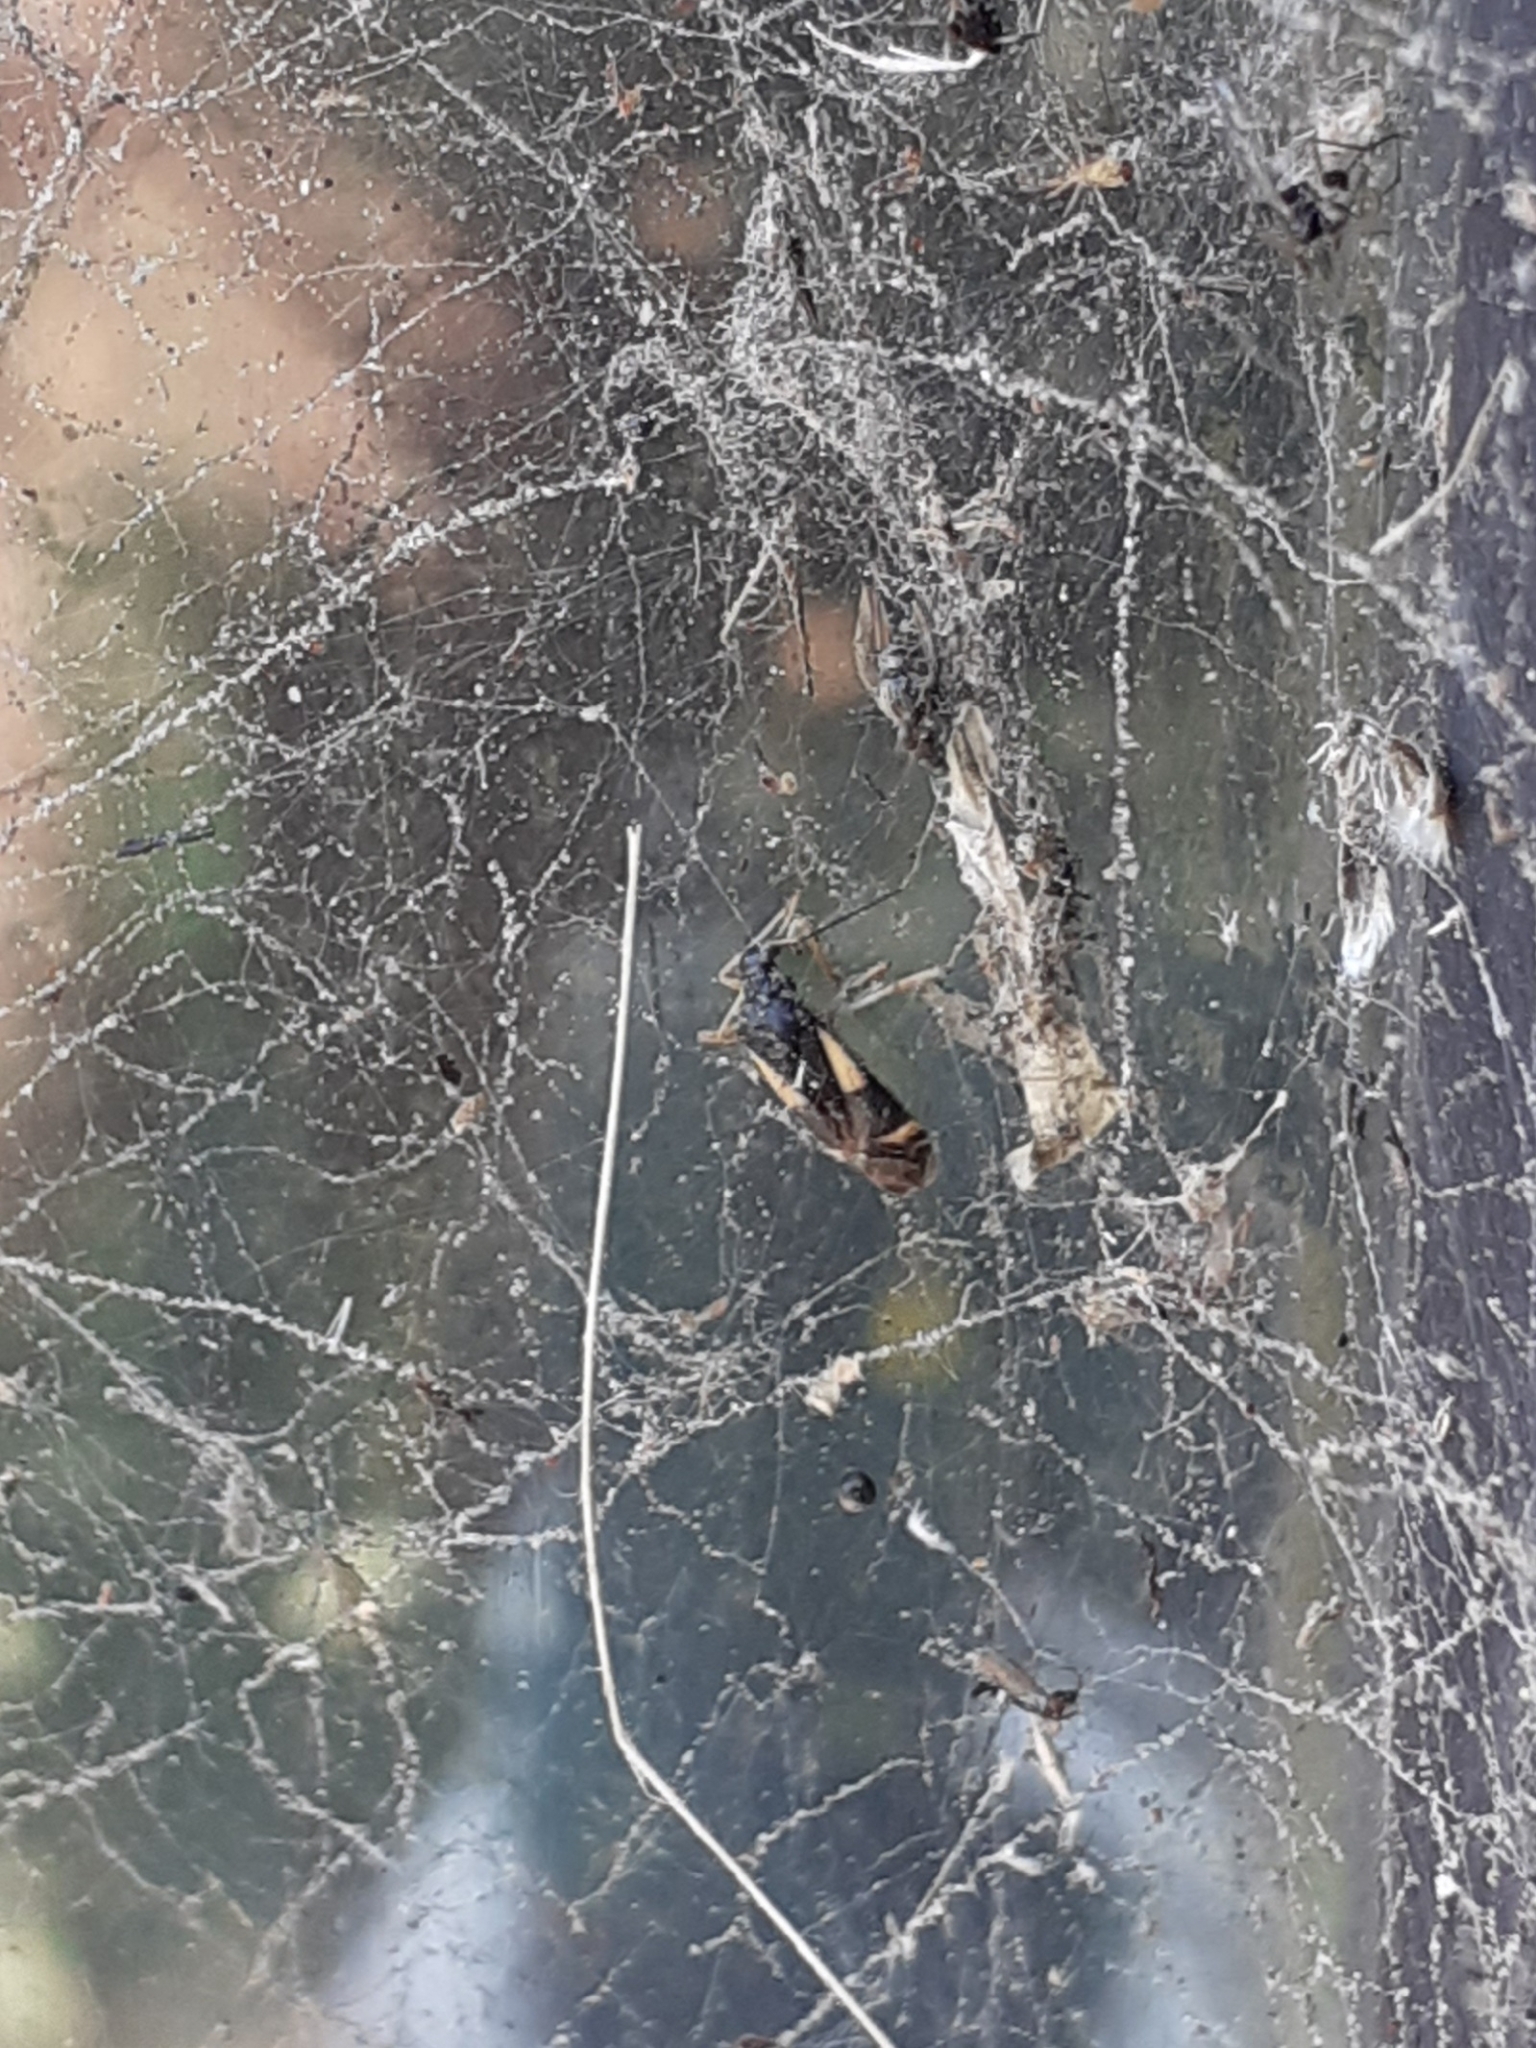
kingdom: Animalia
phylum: Arthropoda
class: Insecta
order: Hemiptera
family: Miridae
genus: Dryophilocoris
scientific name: Dryophilocoris flavoquadrimaculatus
